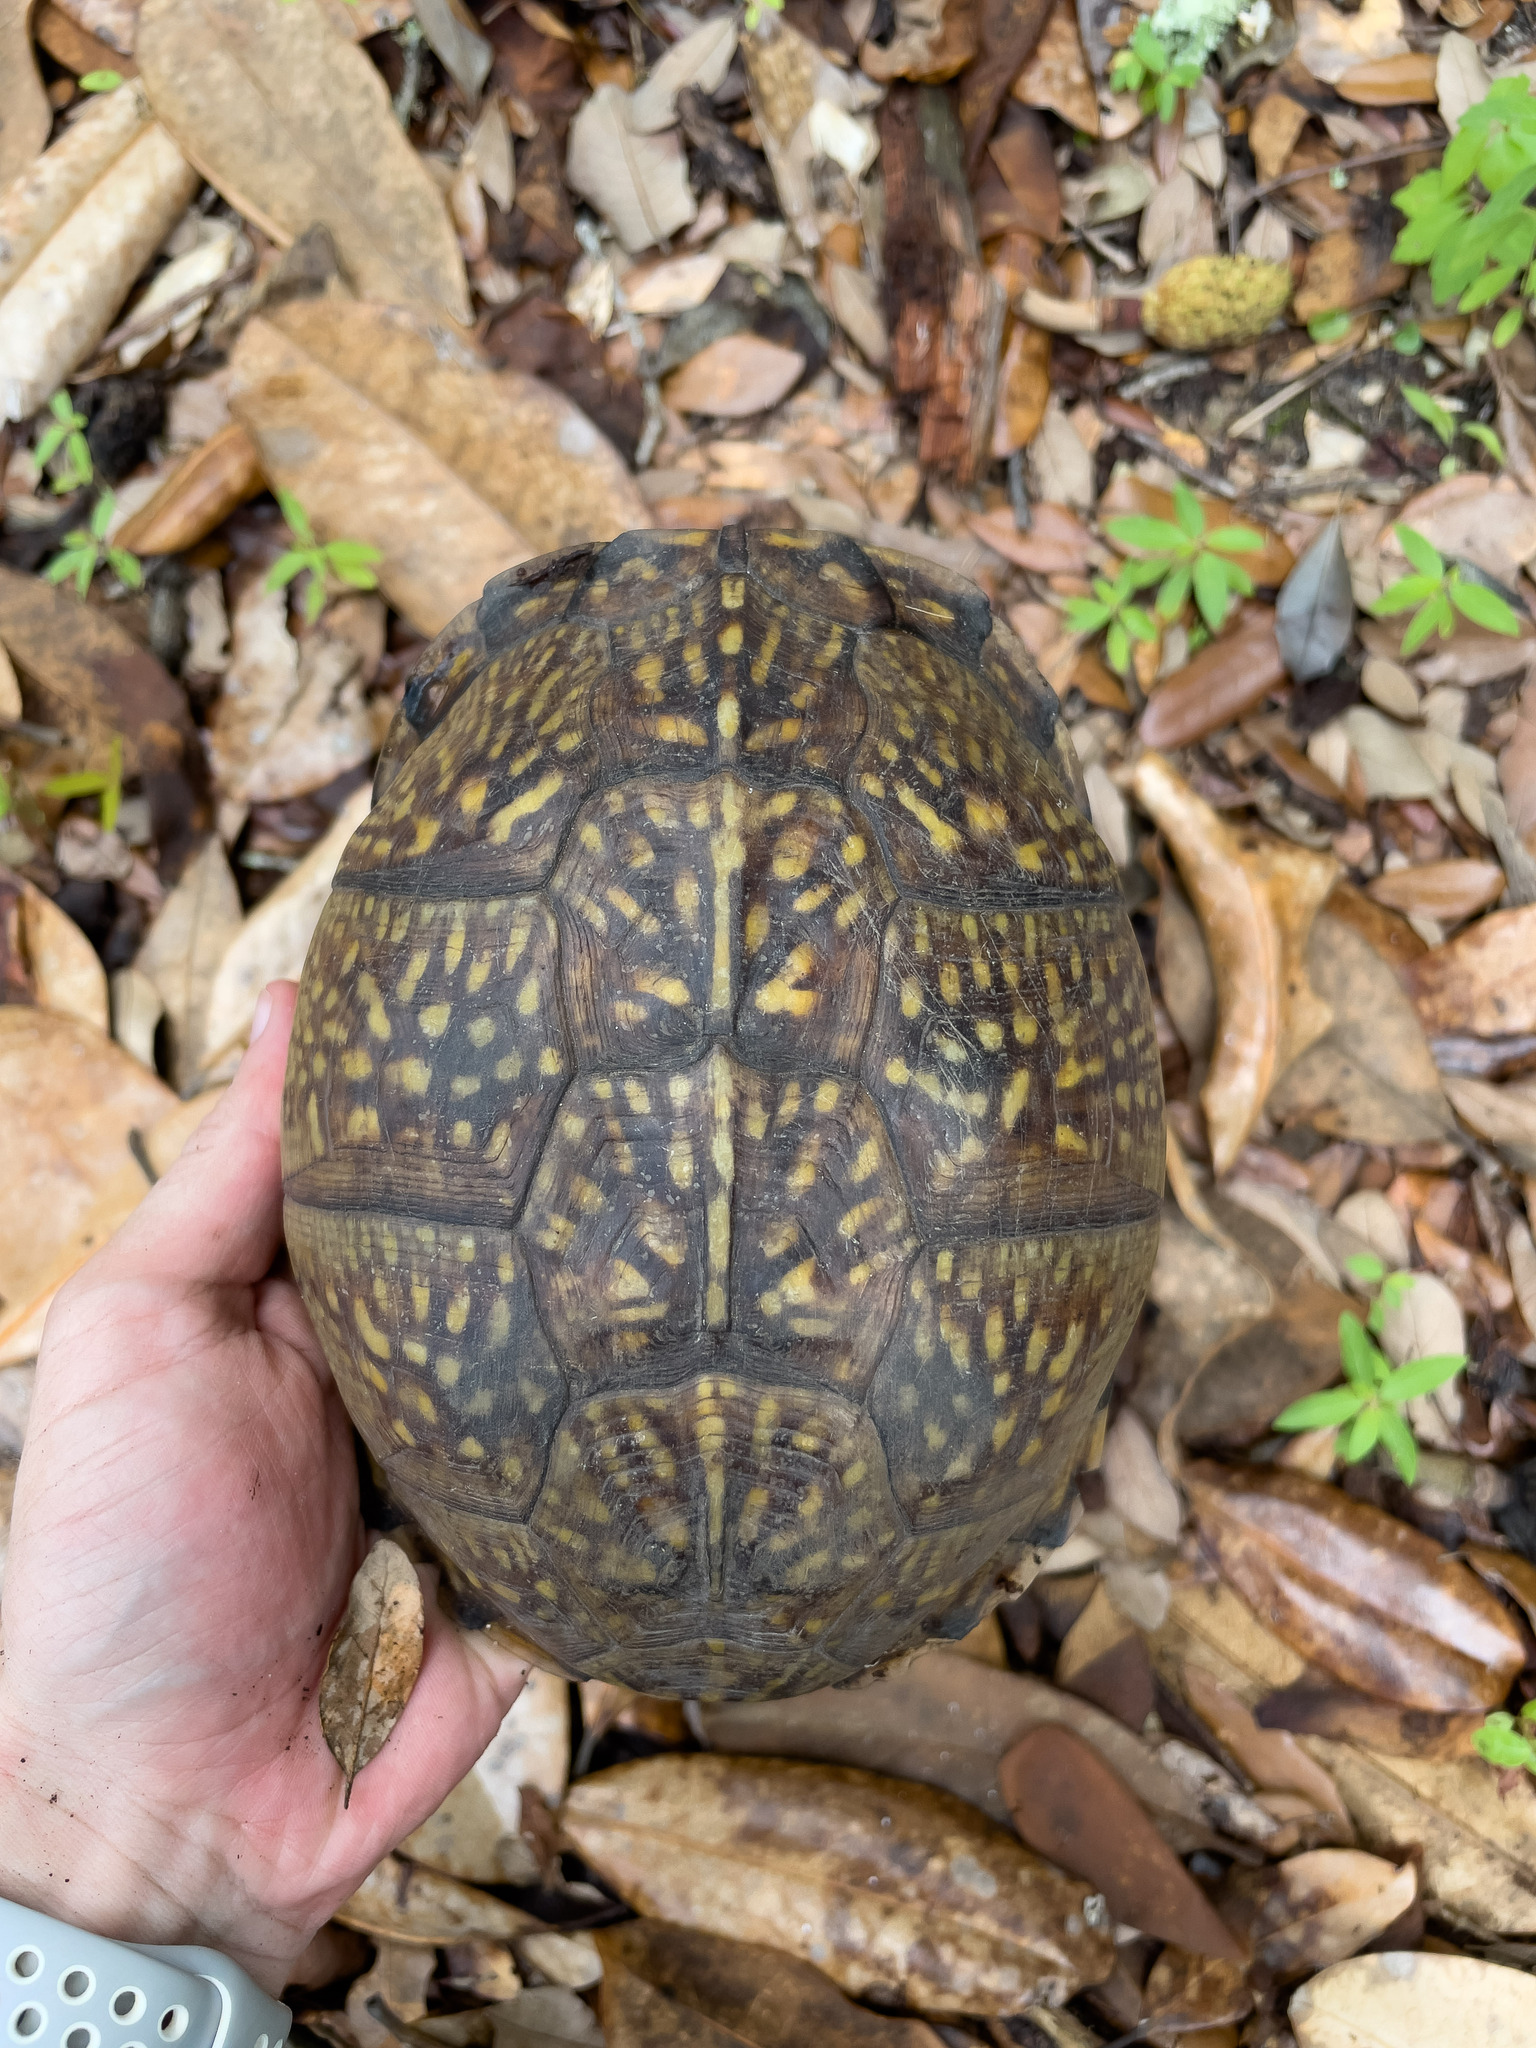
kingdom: Animalia
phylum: Chordata
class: Testudines
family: Emydidae
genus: Terrapene
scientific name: Terrapene carolina
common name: Common box turtle
